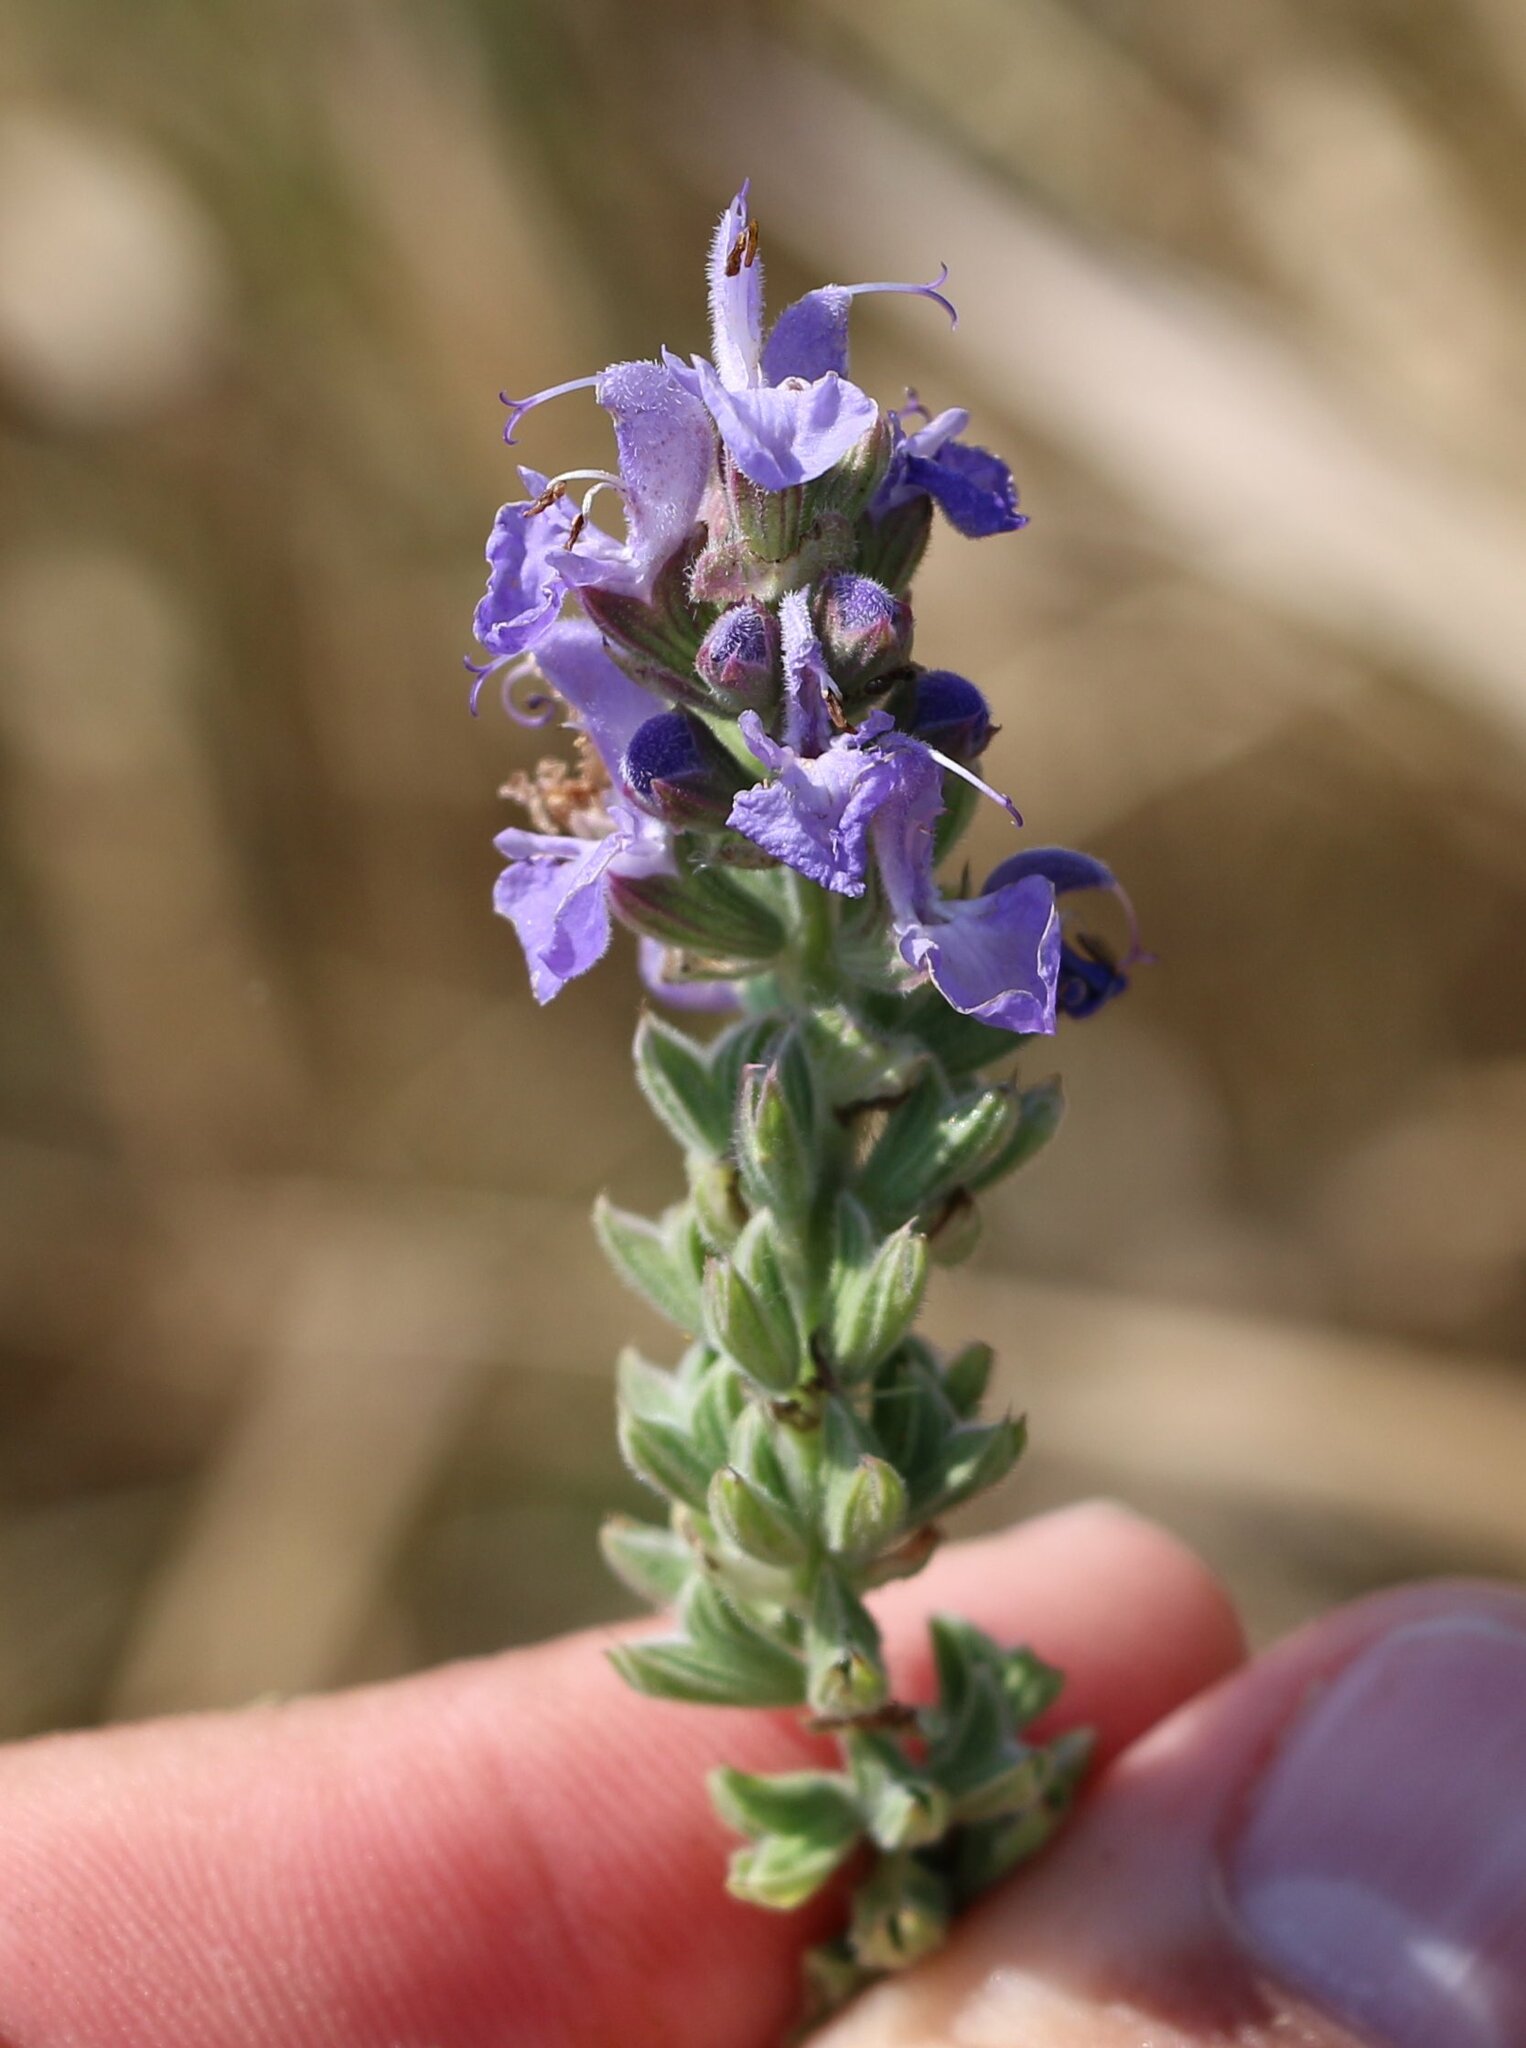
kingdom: Plantae
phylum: Tracheophyta
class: Magnoliopsida
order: Lamiales
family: Lamiaceae
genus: Salvia
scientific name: Salvia nemorosa
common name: Balkan clary
